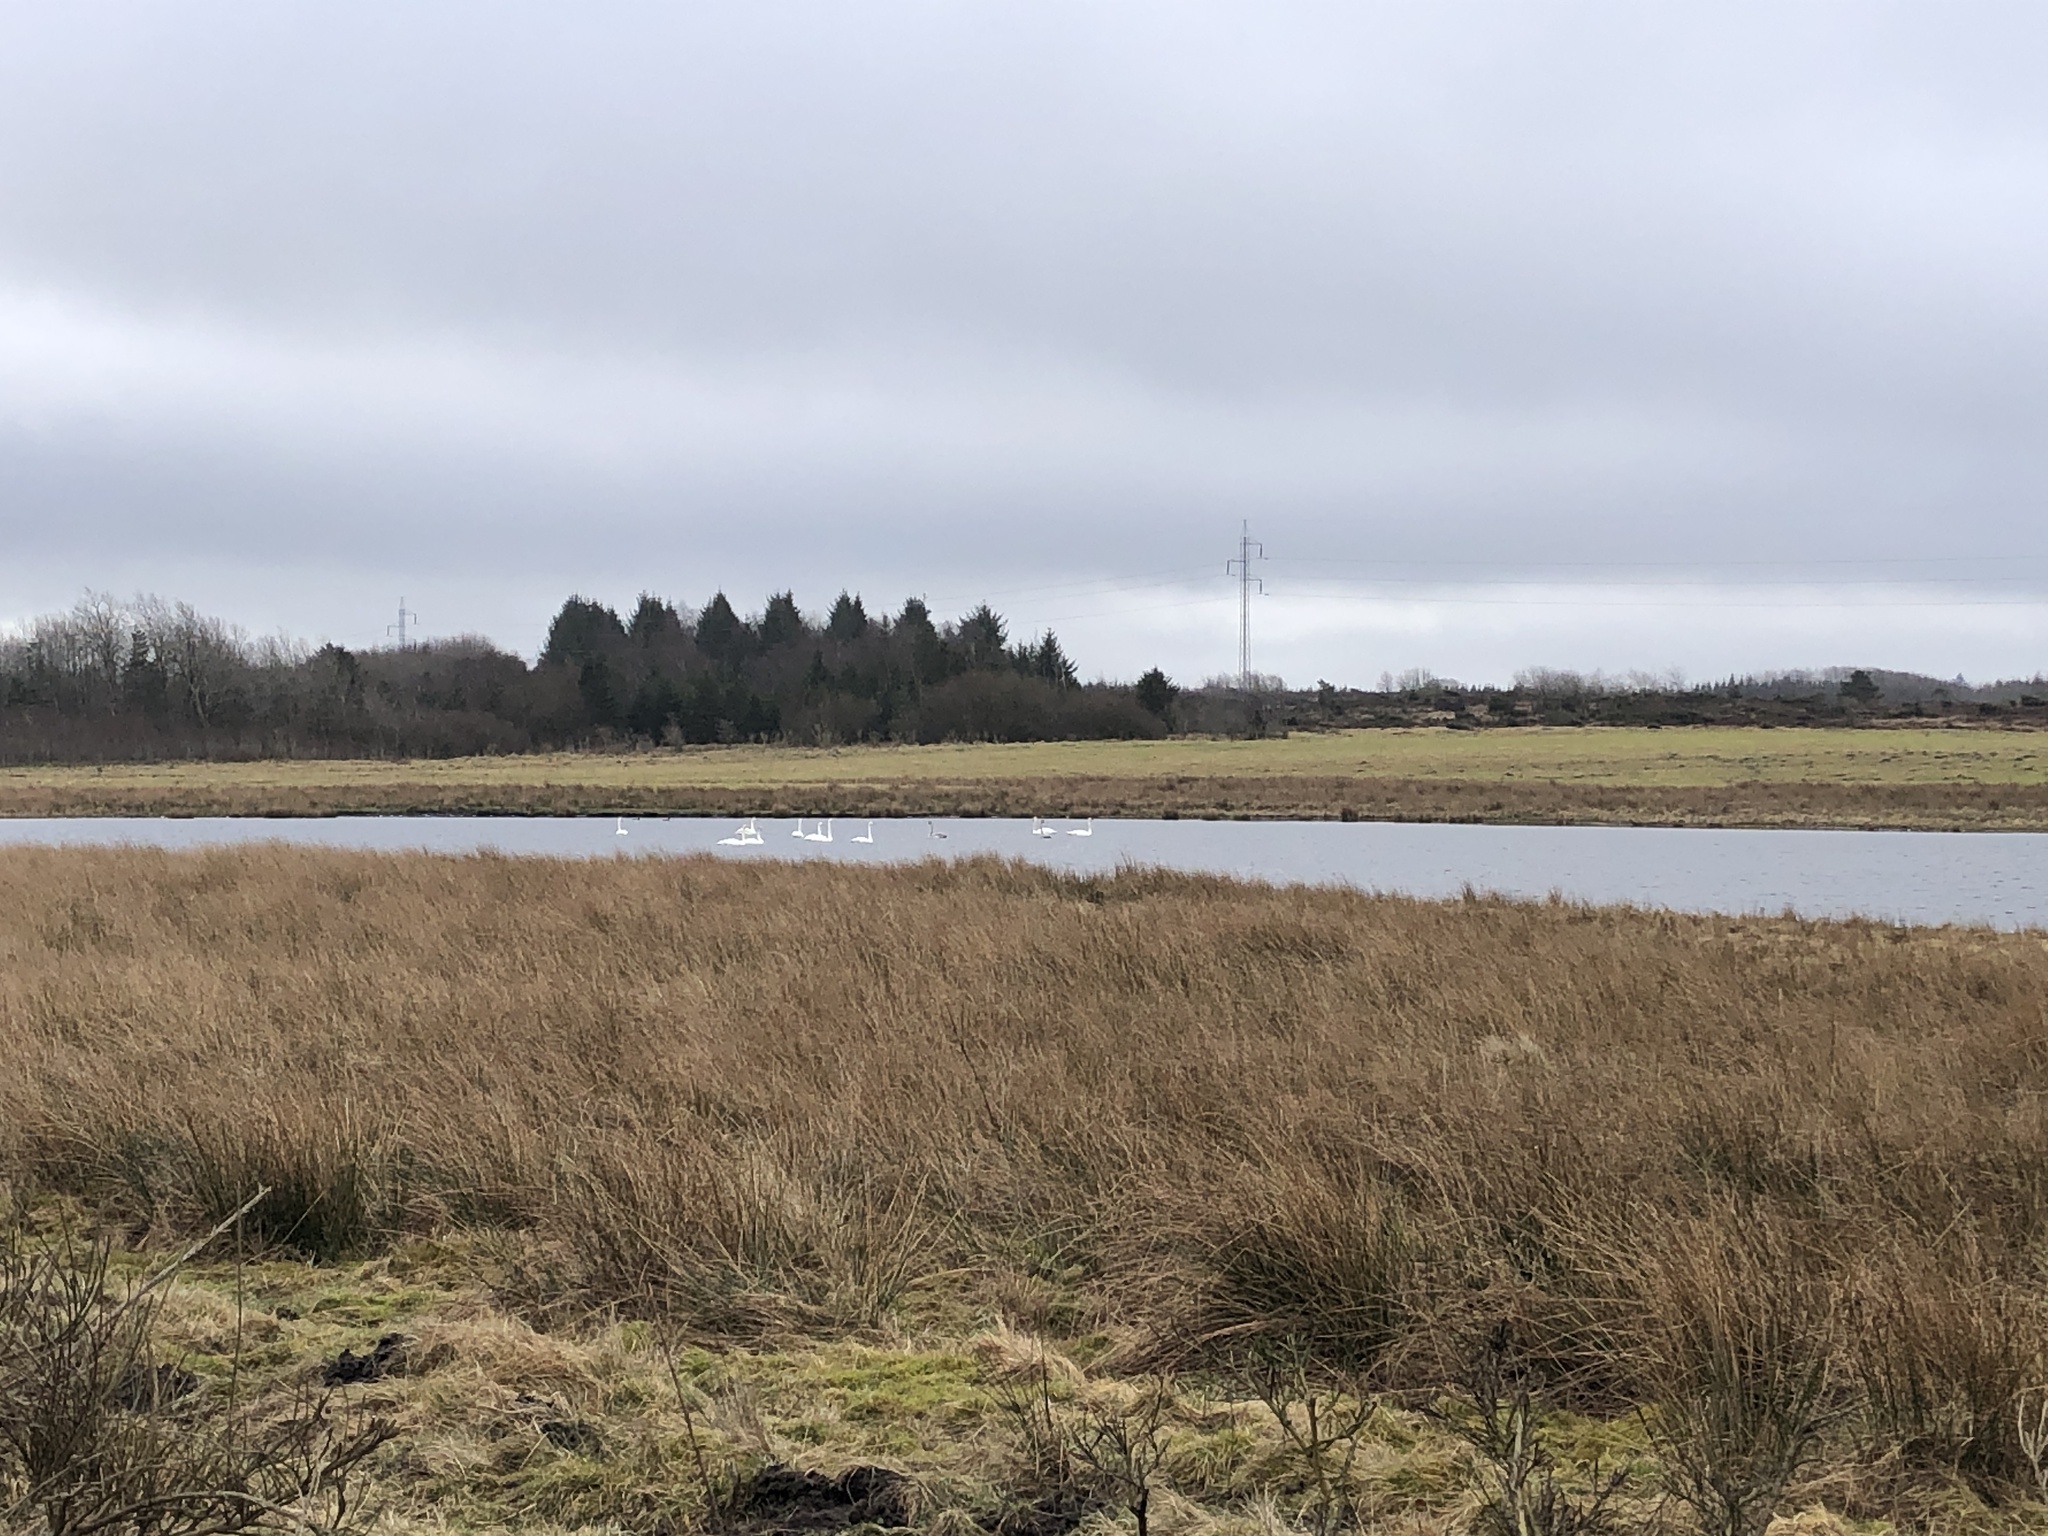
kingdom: Animalia
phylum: Chordata
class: Aves
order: Anseriformes
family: Anatidae
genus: Cygnus
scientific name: Cygnus cygnus
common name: Whooper swan
